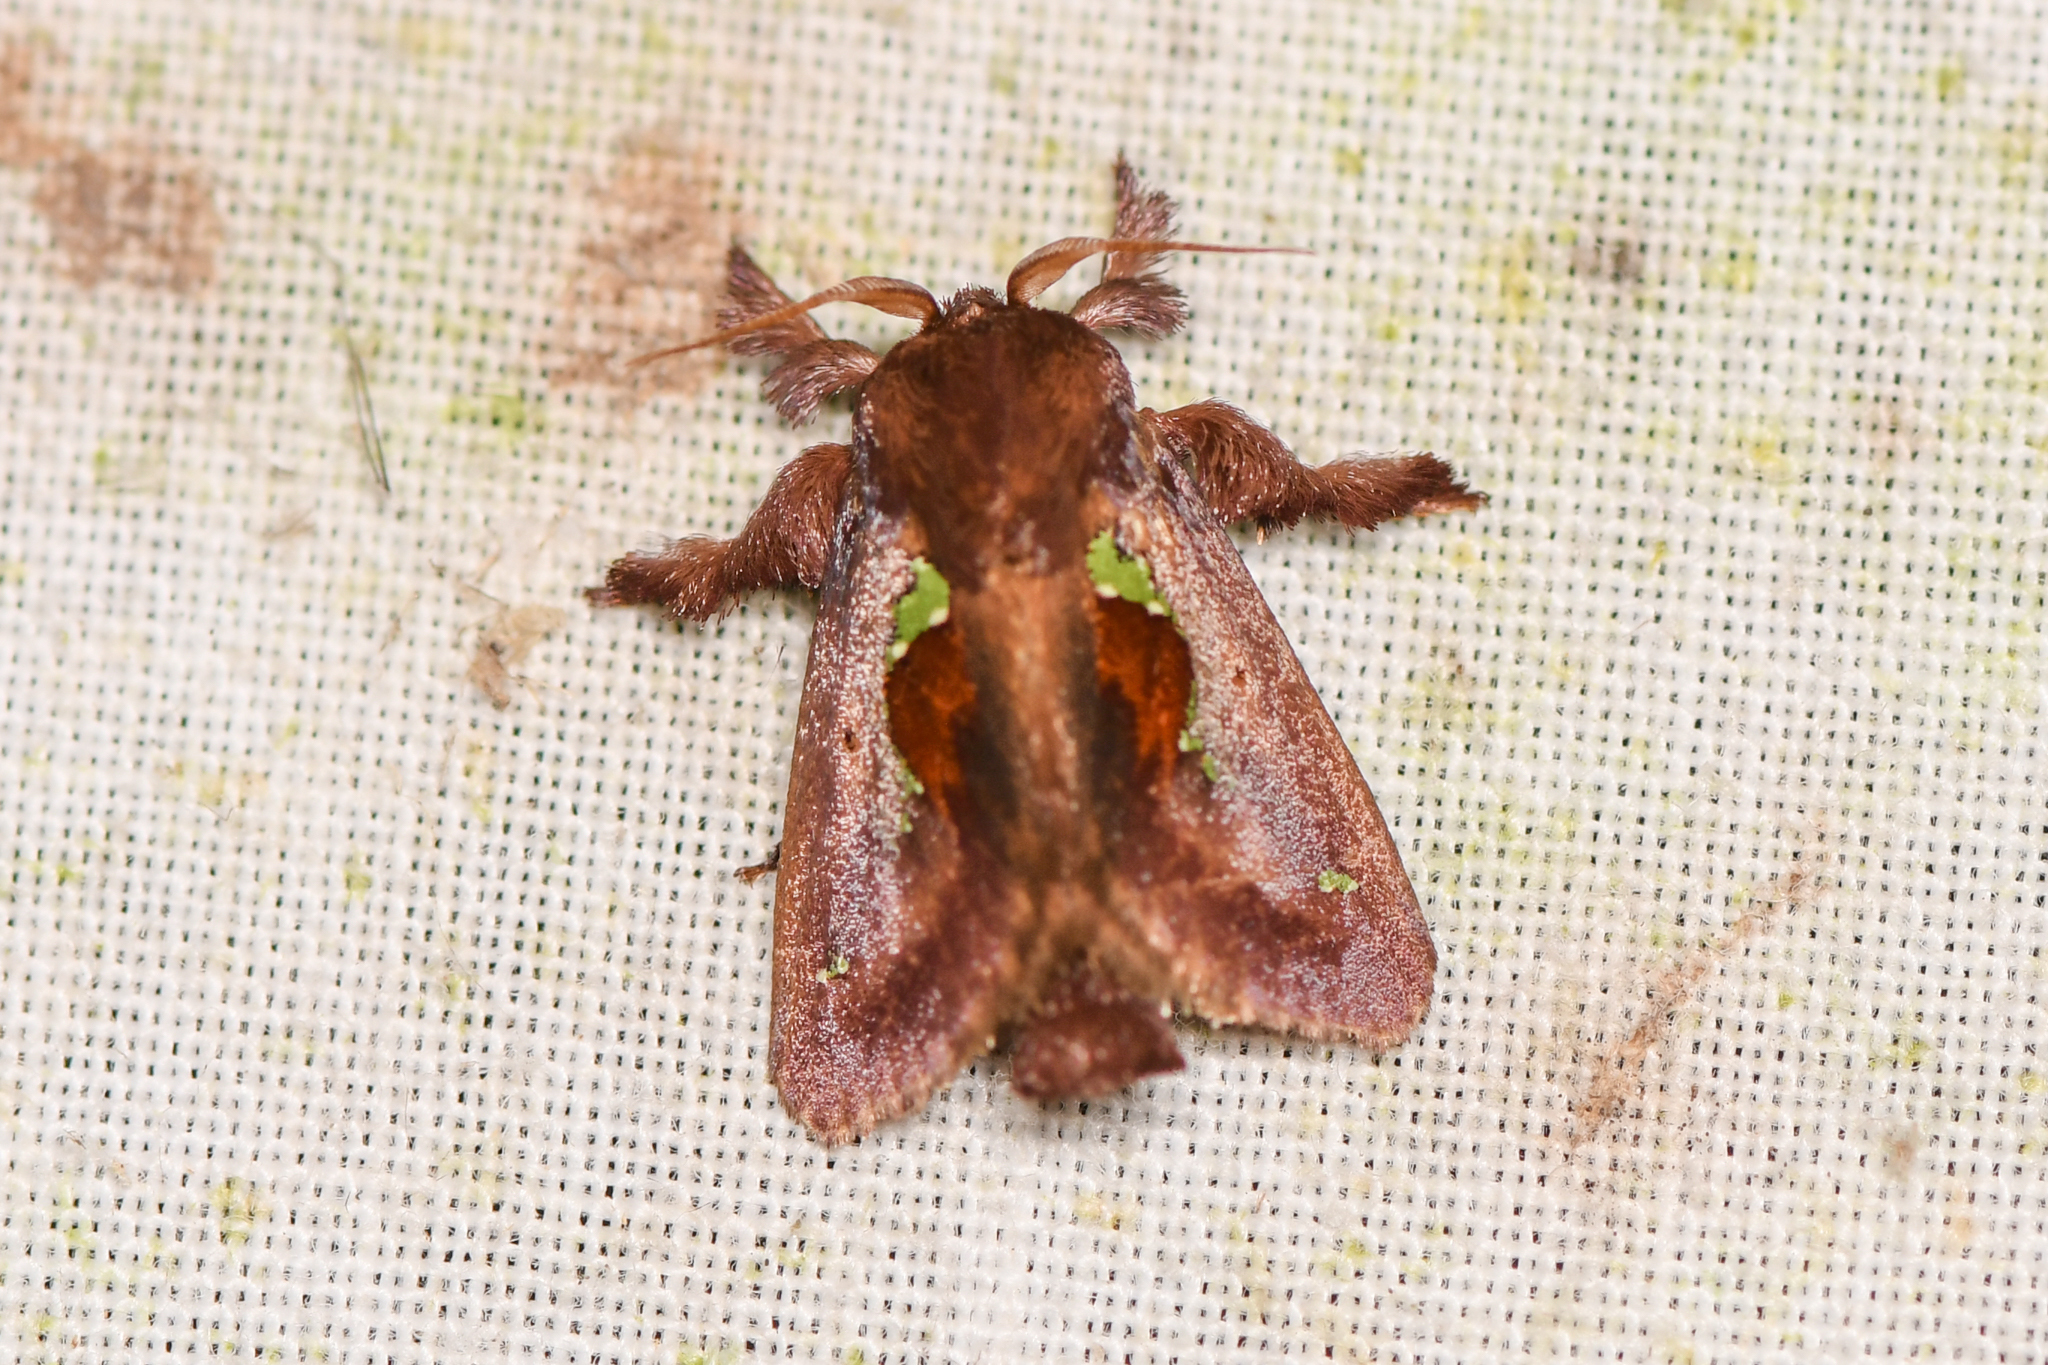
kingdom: Animalia
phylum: Arthropoda
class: Insecta
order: Lepidoptera
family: Limacodidae
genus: Euclea
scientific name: Euclea mesoamericana
